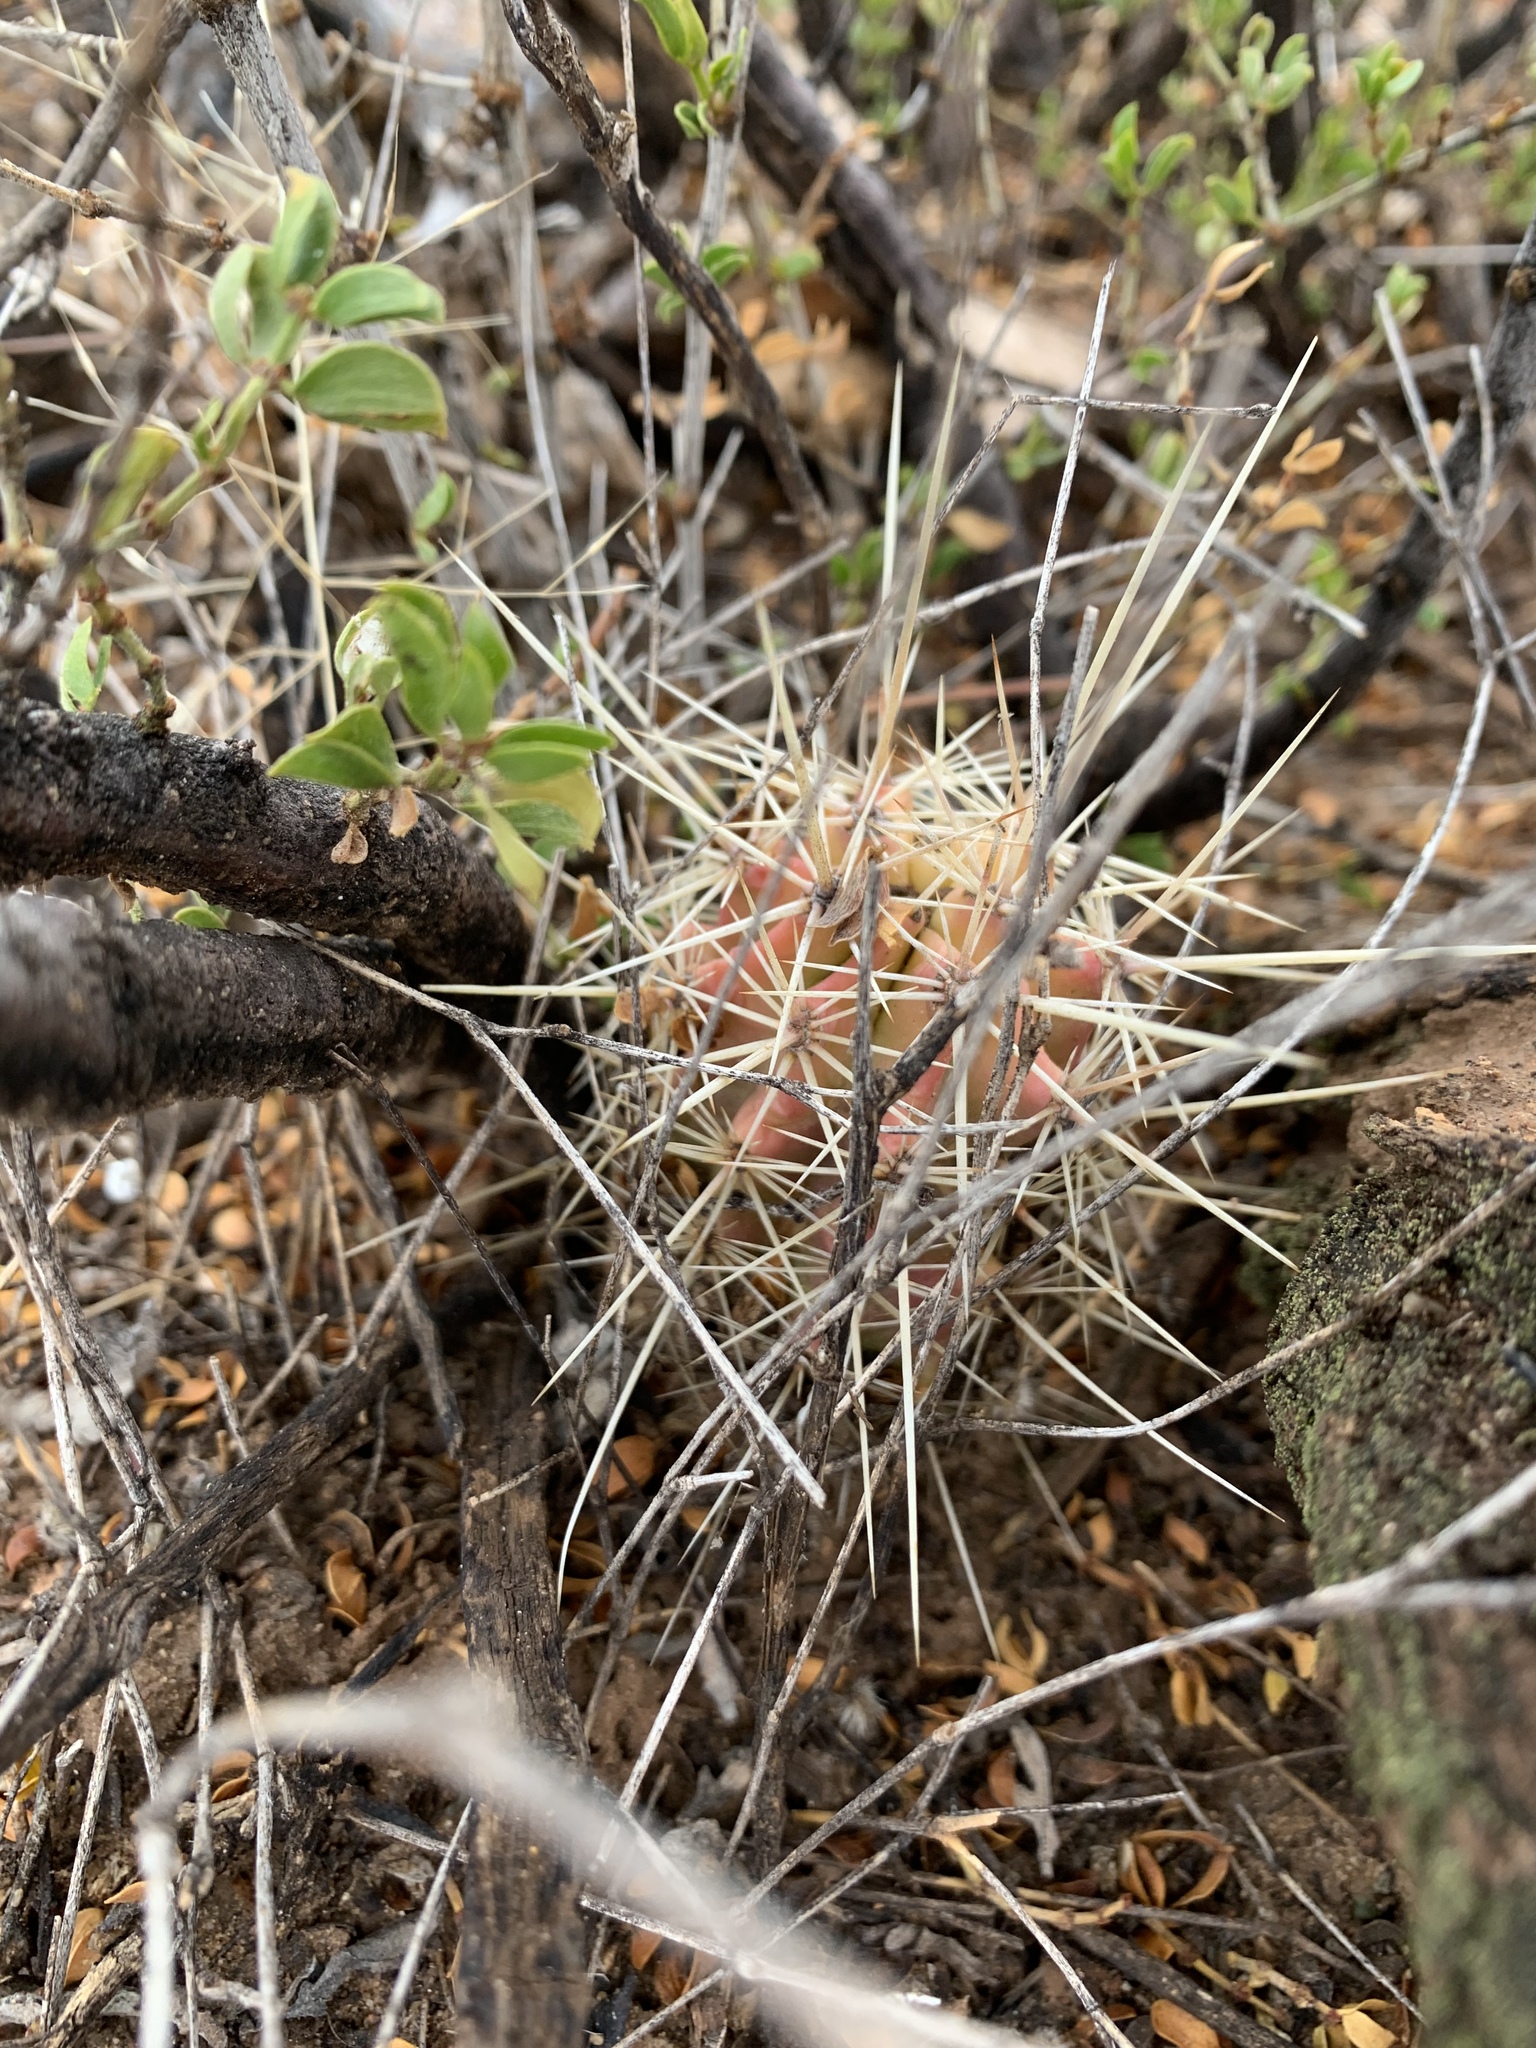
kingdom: Plantae
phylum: Tracheophyta
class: Magnoliopsida
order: Caryophyllales
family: Cactaceae
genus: Echinocereus
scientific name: Echinocereus coccineus
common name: Scarlet hedgehog cactus
